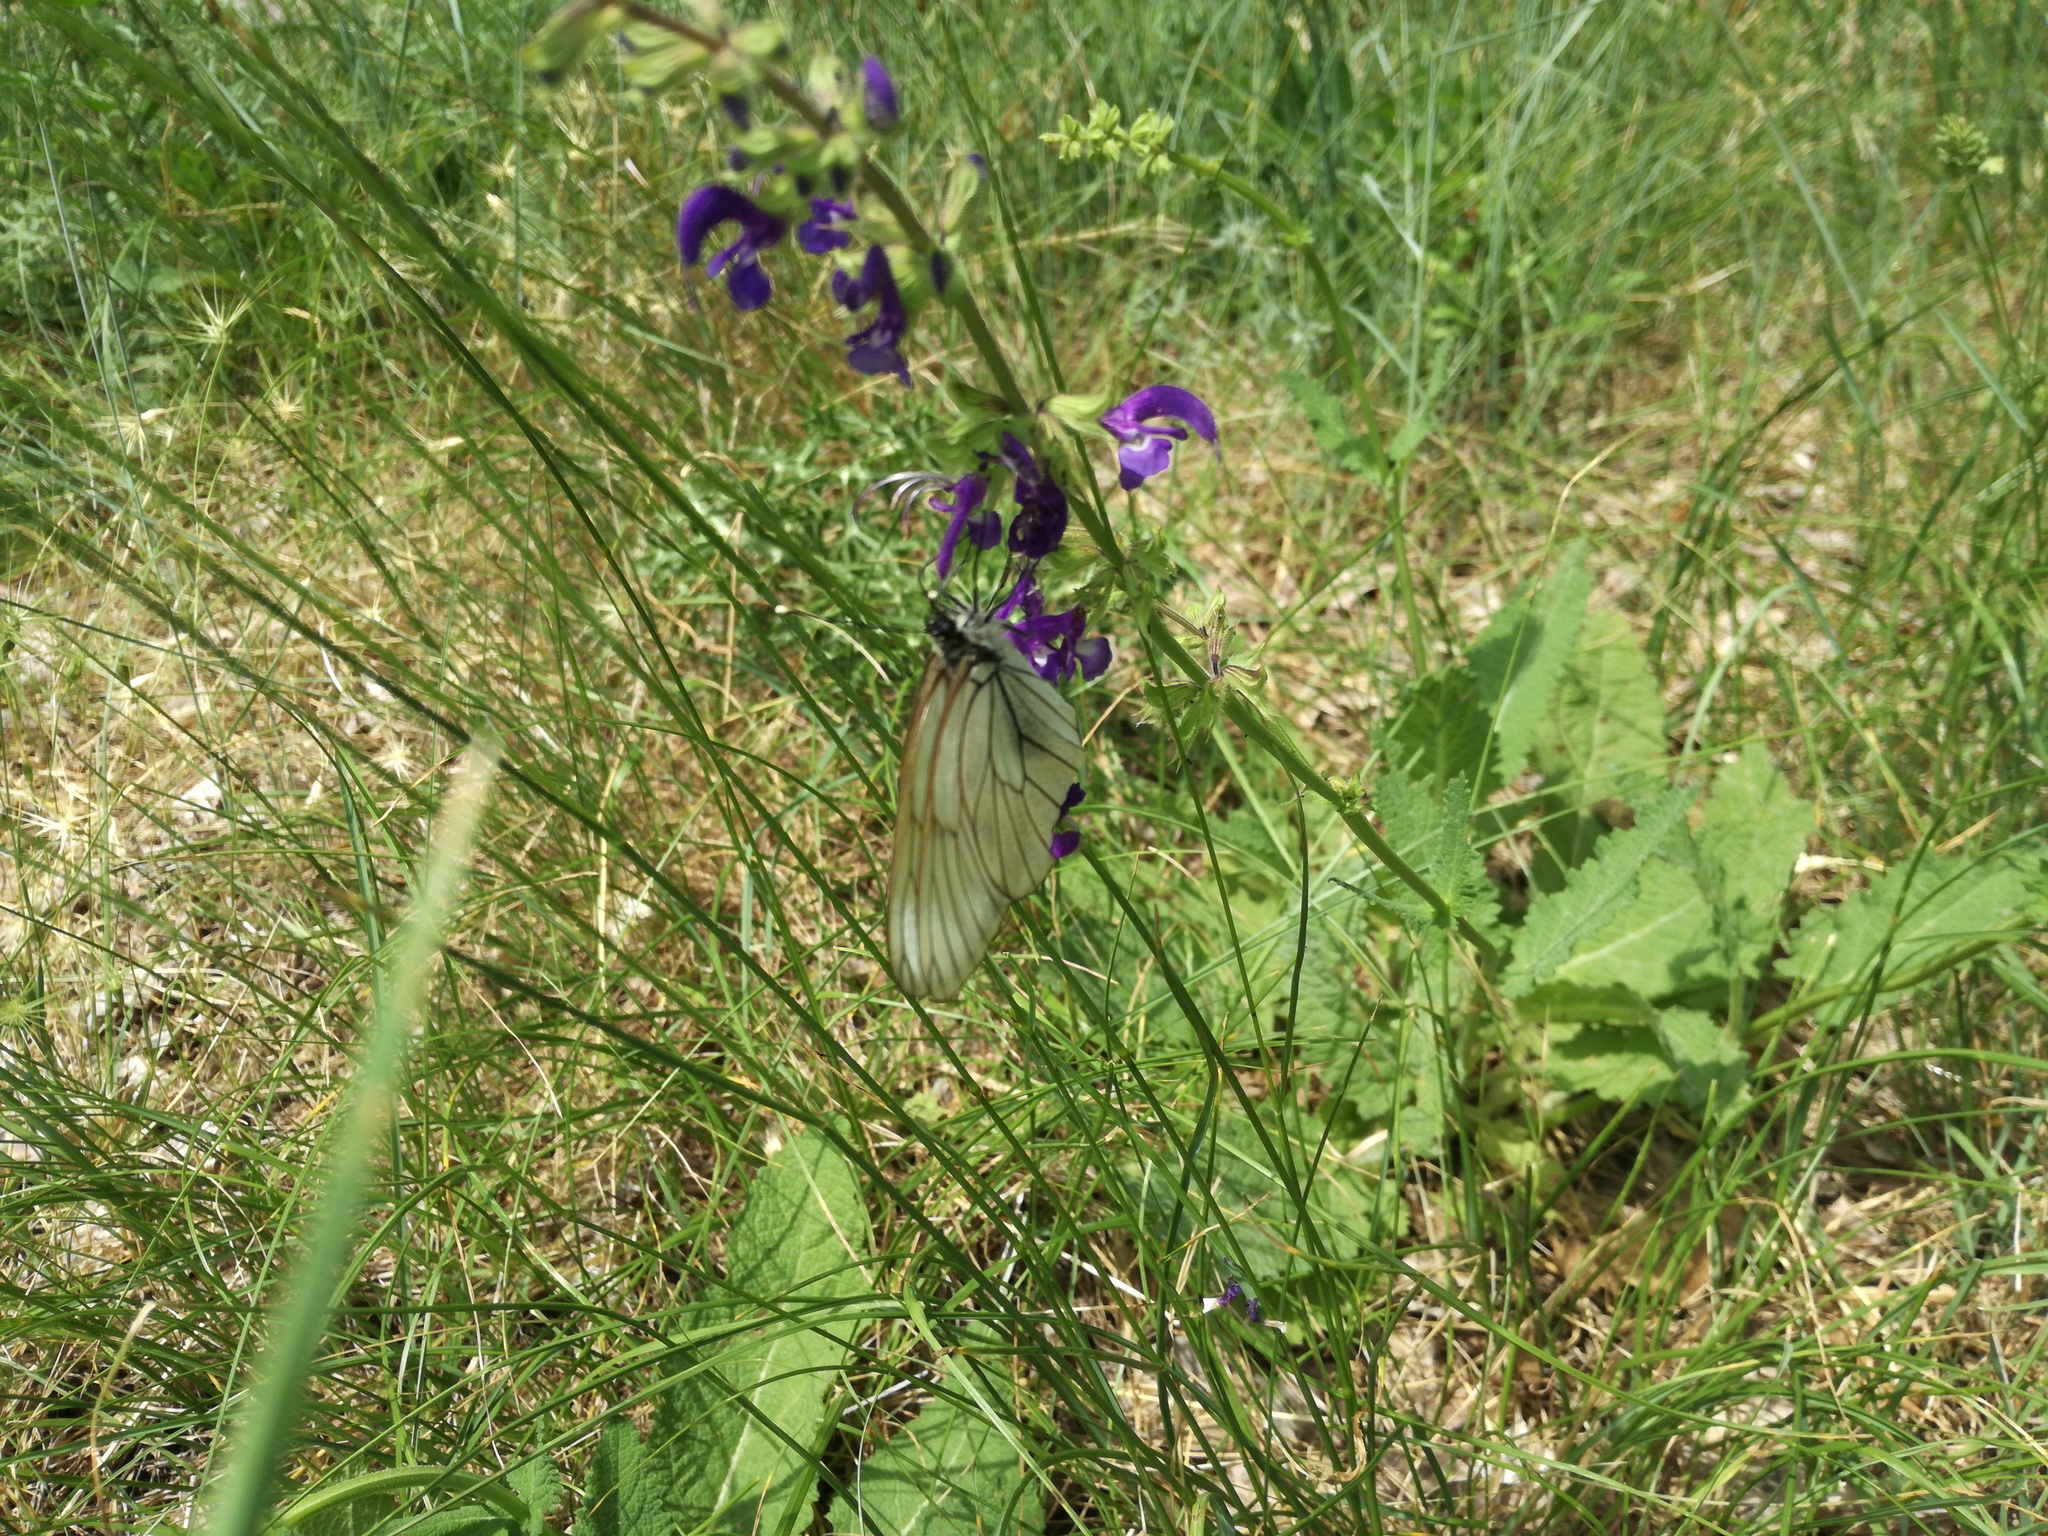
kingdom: Animalia
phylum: Arthropoda
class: Insecta
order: Lepidoptera
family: Pieridae
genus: Aporia
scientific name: Aporia crataegi
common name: Black-veined white
